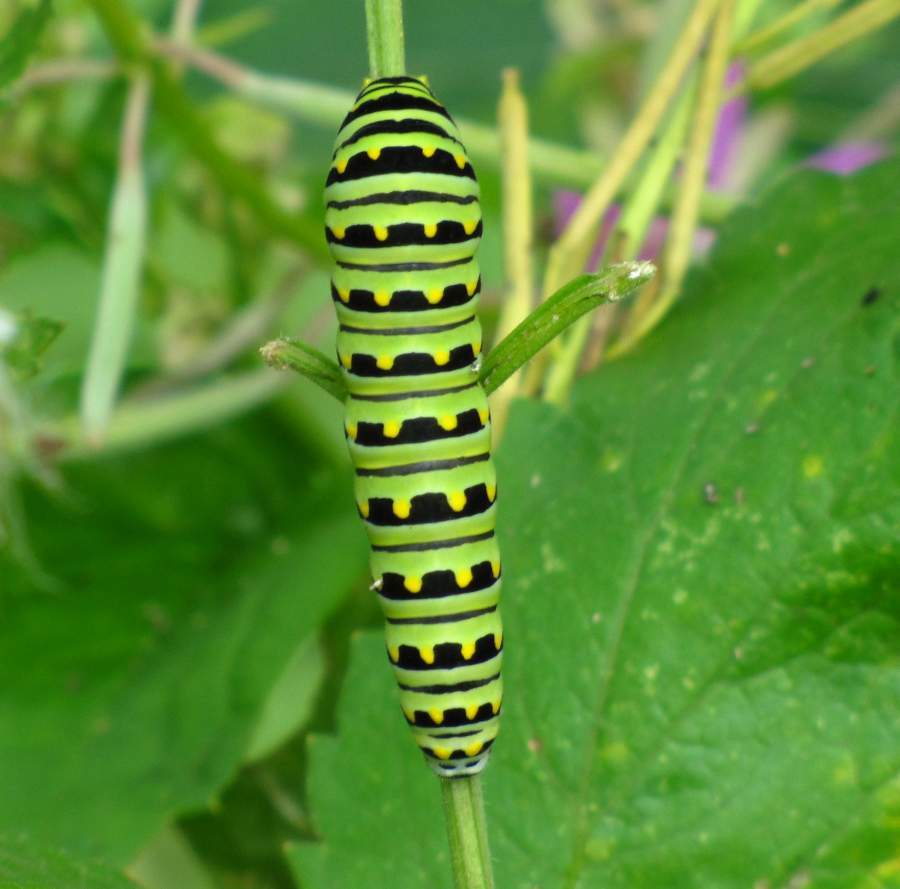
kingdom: Animalia
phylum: Arthropoda
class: Insecta
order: Lepidoptera
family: Papilionidae
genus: Papilio
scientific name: Papilio polyxenes
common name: Black swallowtail
